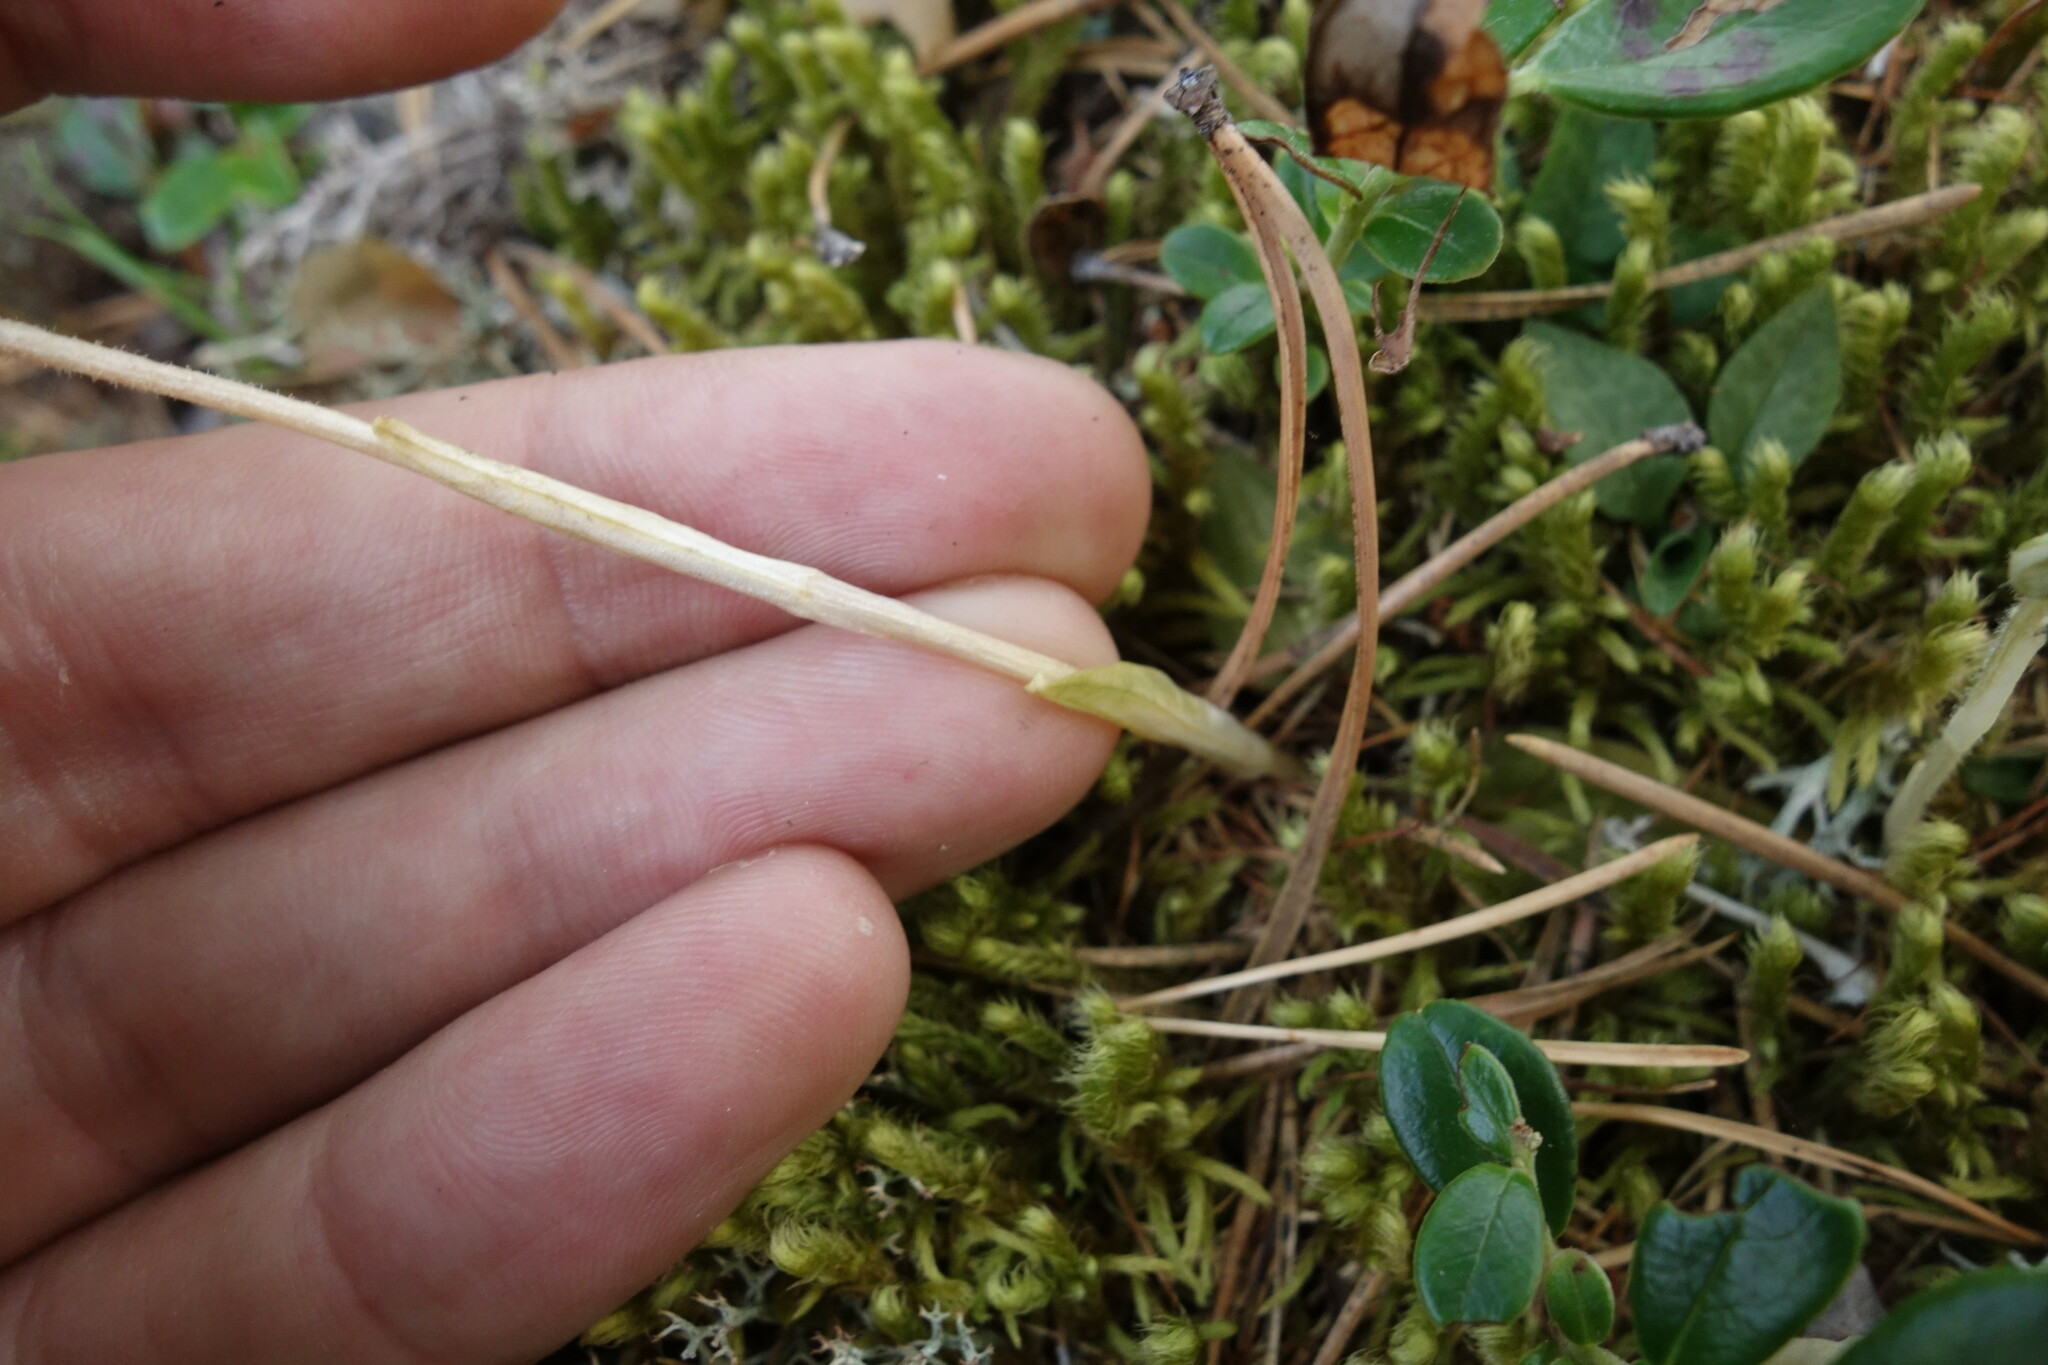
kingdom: Plantae
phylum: Tracheophyta
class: Liliopsida
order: Asparagales
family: Orchidaceae
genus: Goodyera
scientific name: Goodyera repens
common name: Creeping lady's-tresses
